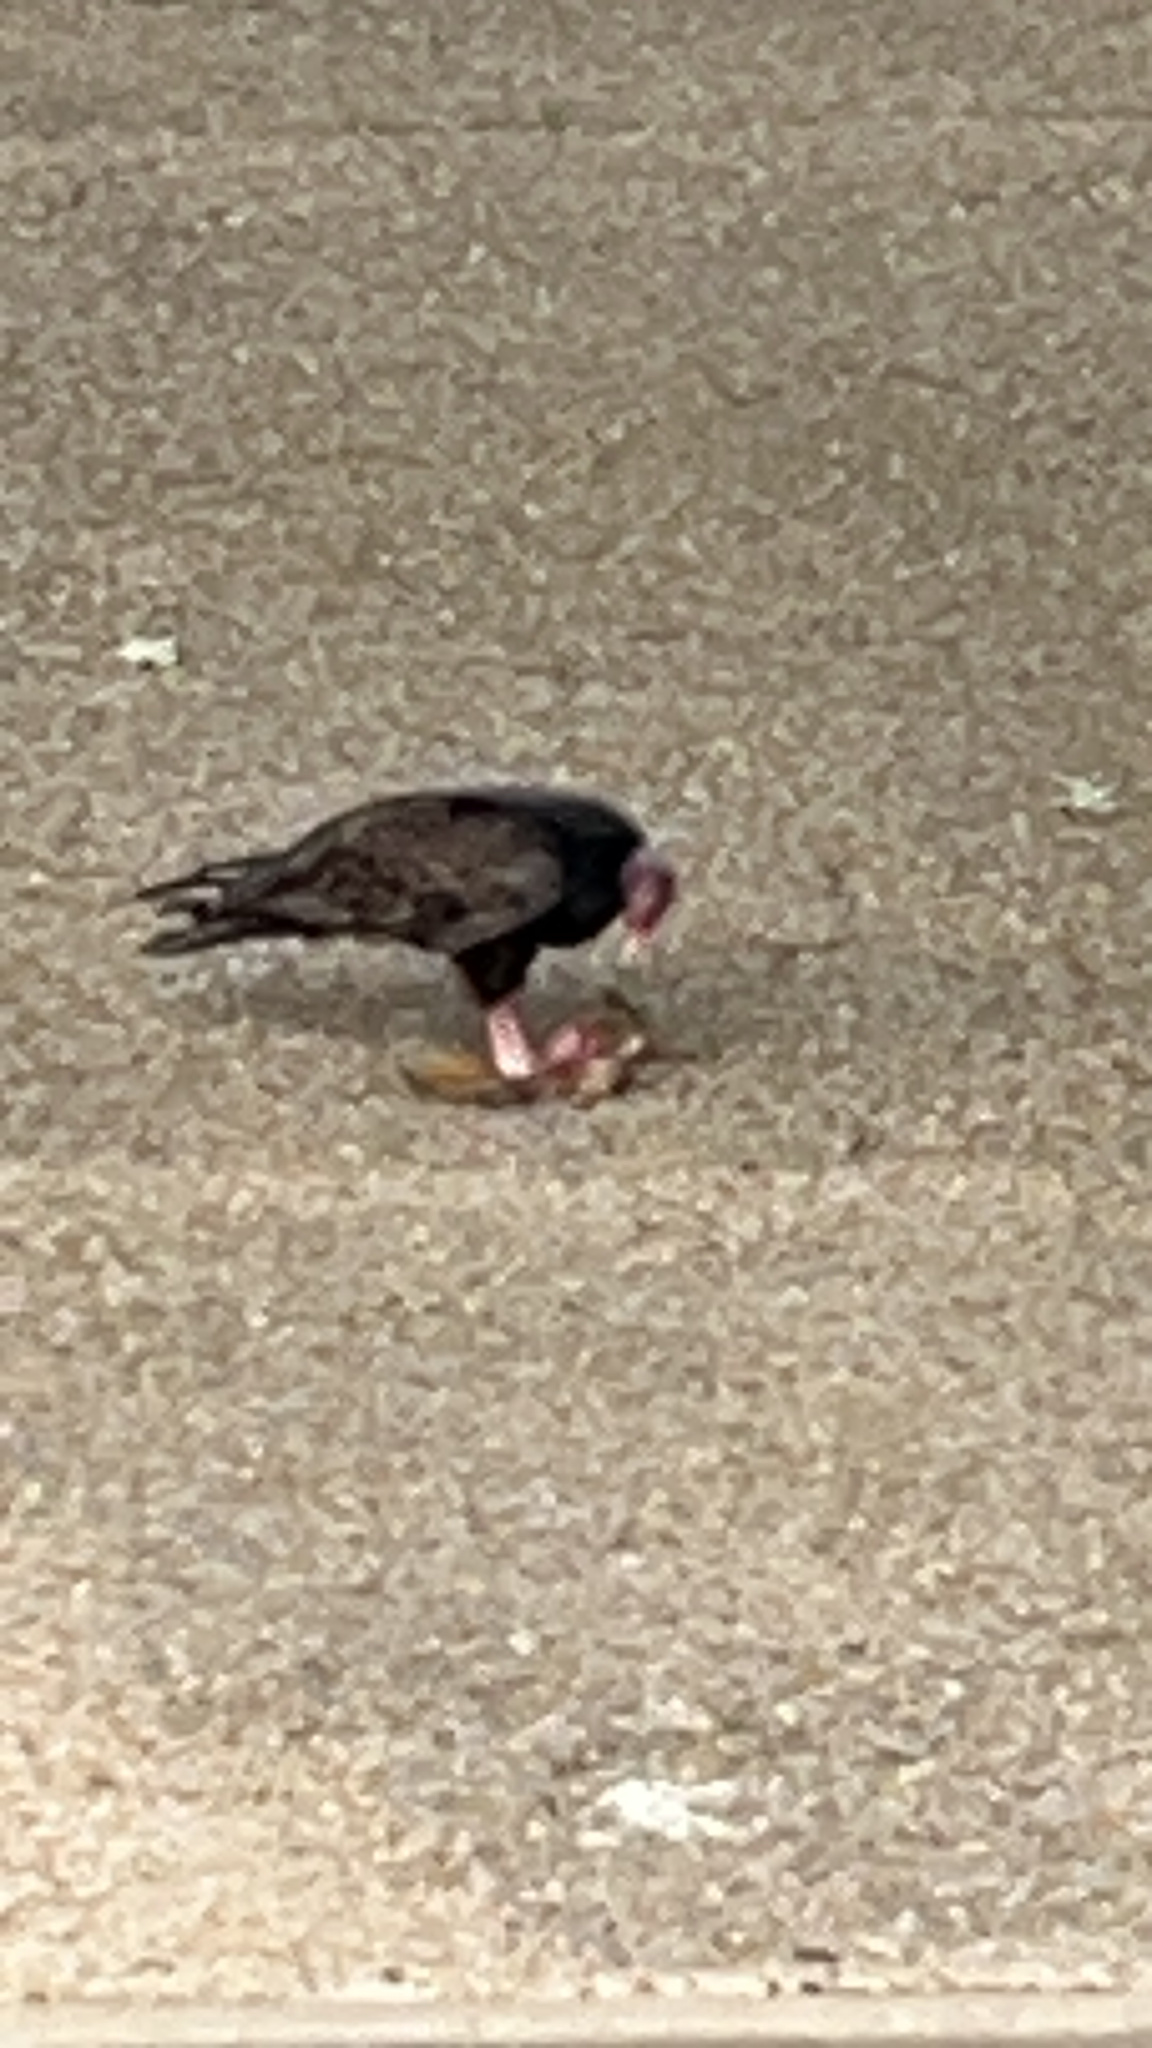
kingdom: Animalia
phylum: Chordata
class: Aves
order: Accipitriformes
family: Cathartidae
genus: Cathartes
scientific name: Cathartes aura
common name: Turkey vulture
